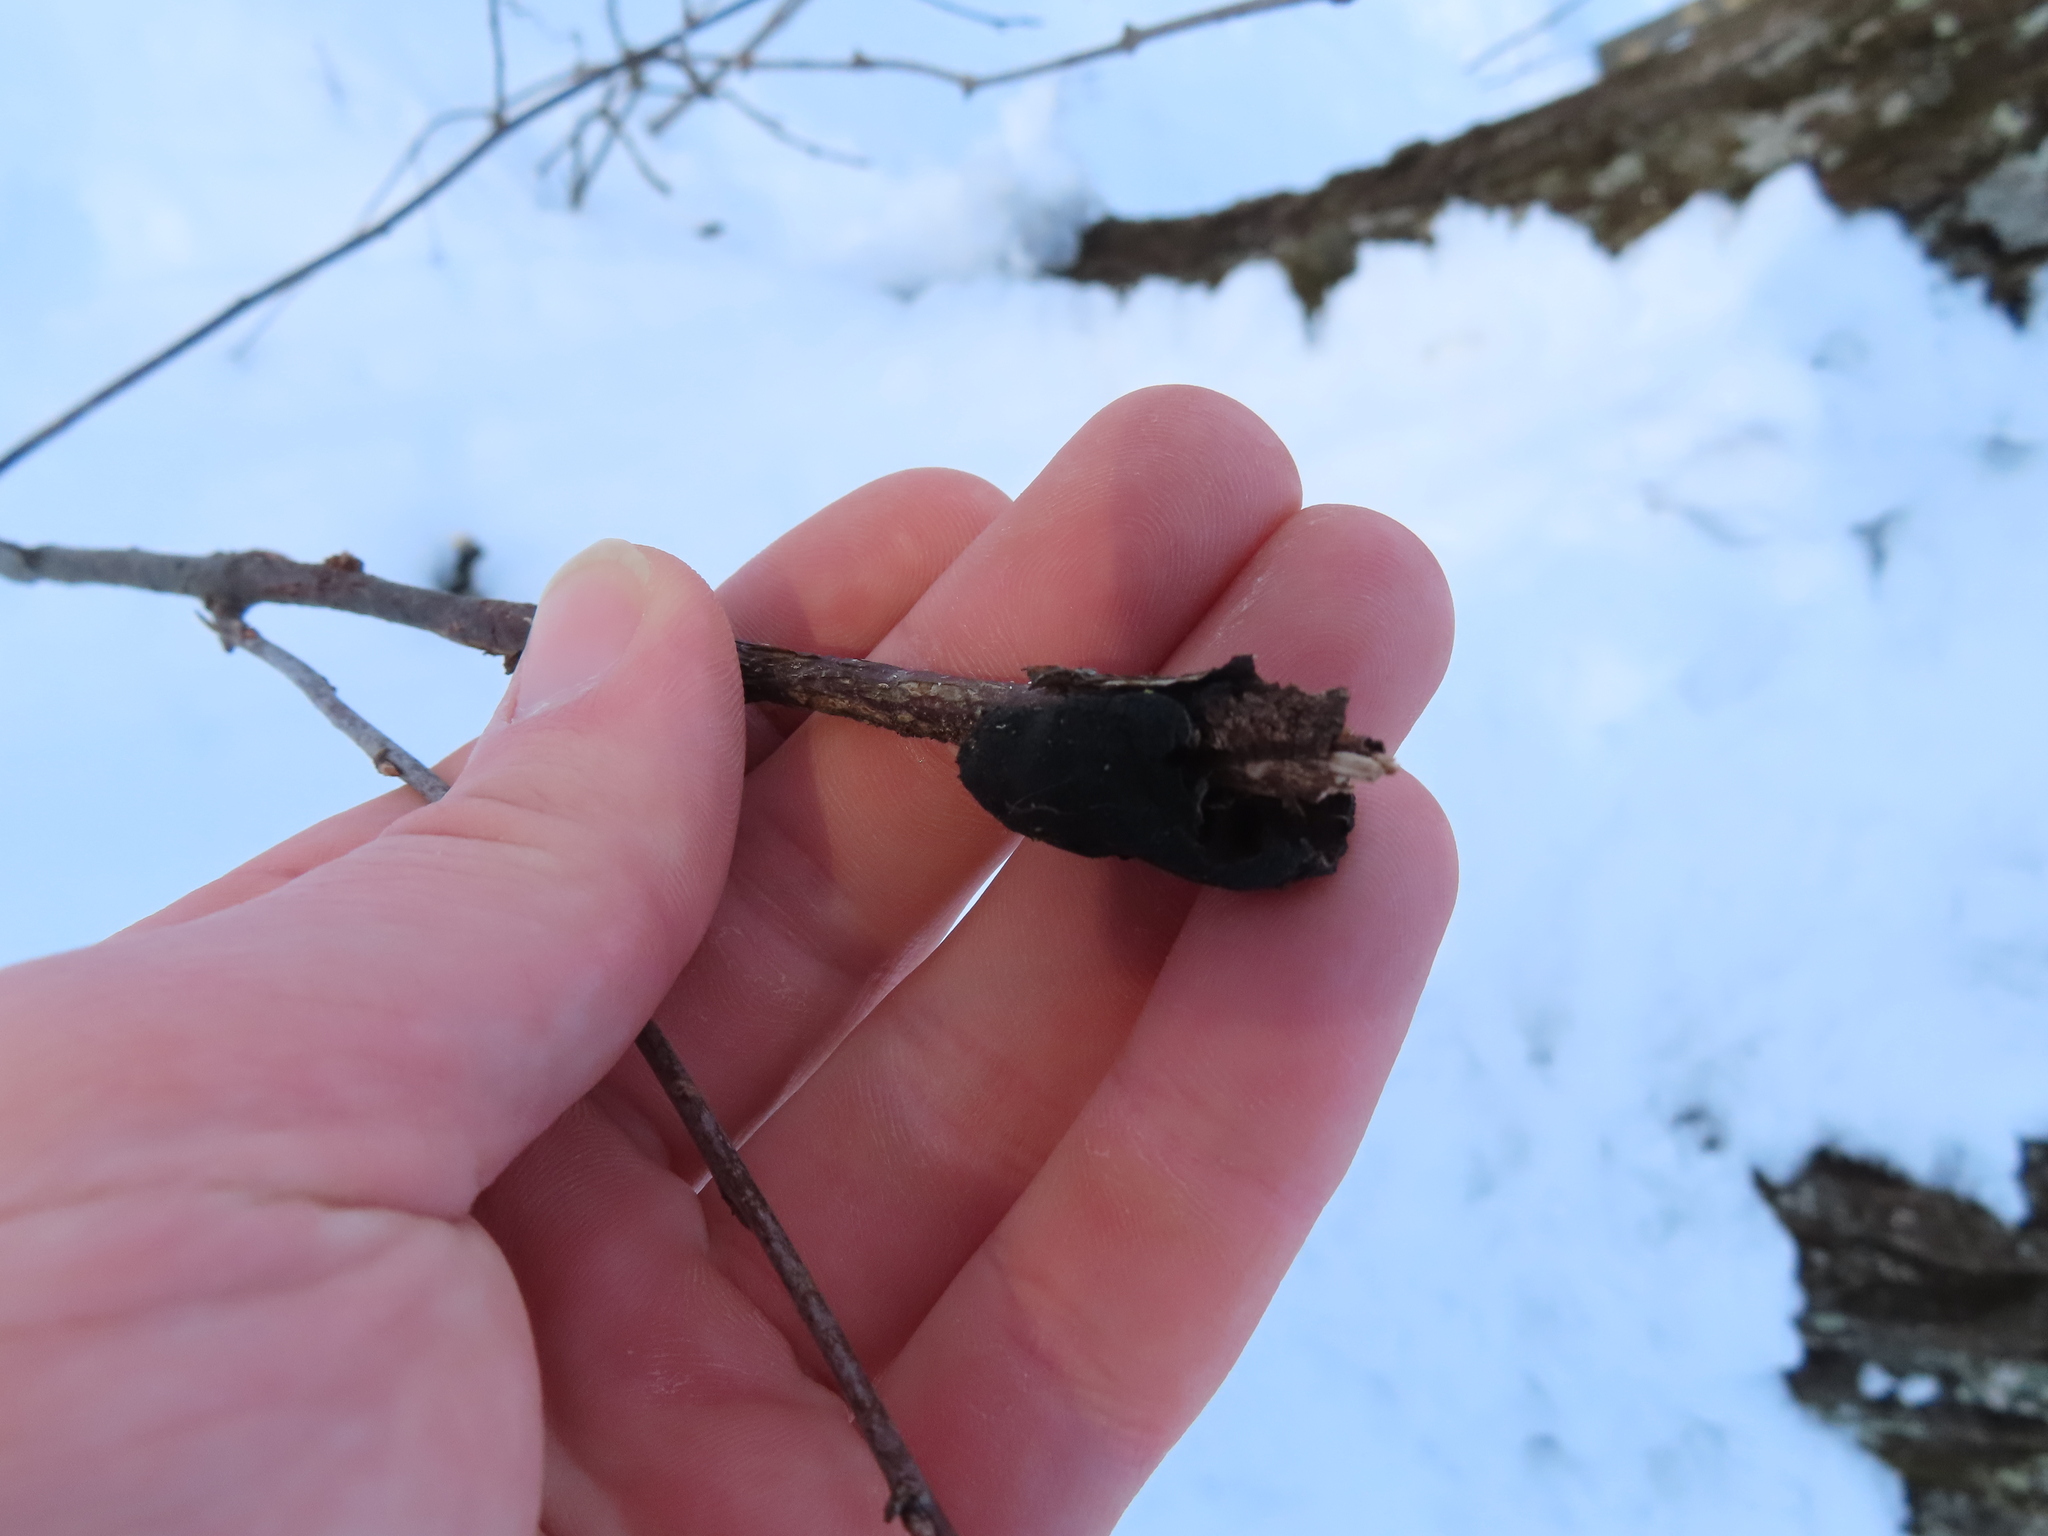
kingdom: Fungi
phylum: Ascomycota
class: Dothideomycetes
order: Venturiales
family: Venturiaceae
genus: Apiosporina
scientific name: Apiosporina morbosa
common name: Black knot
